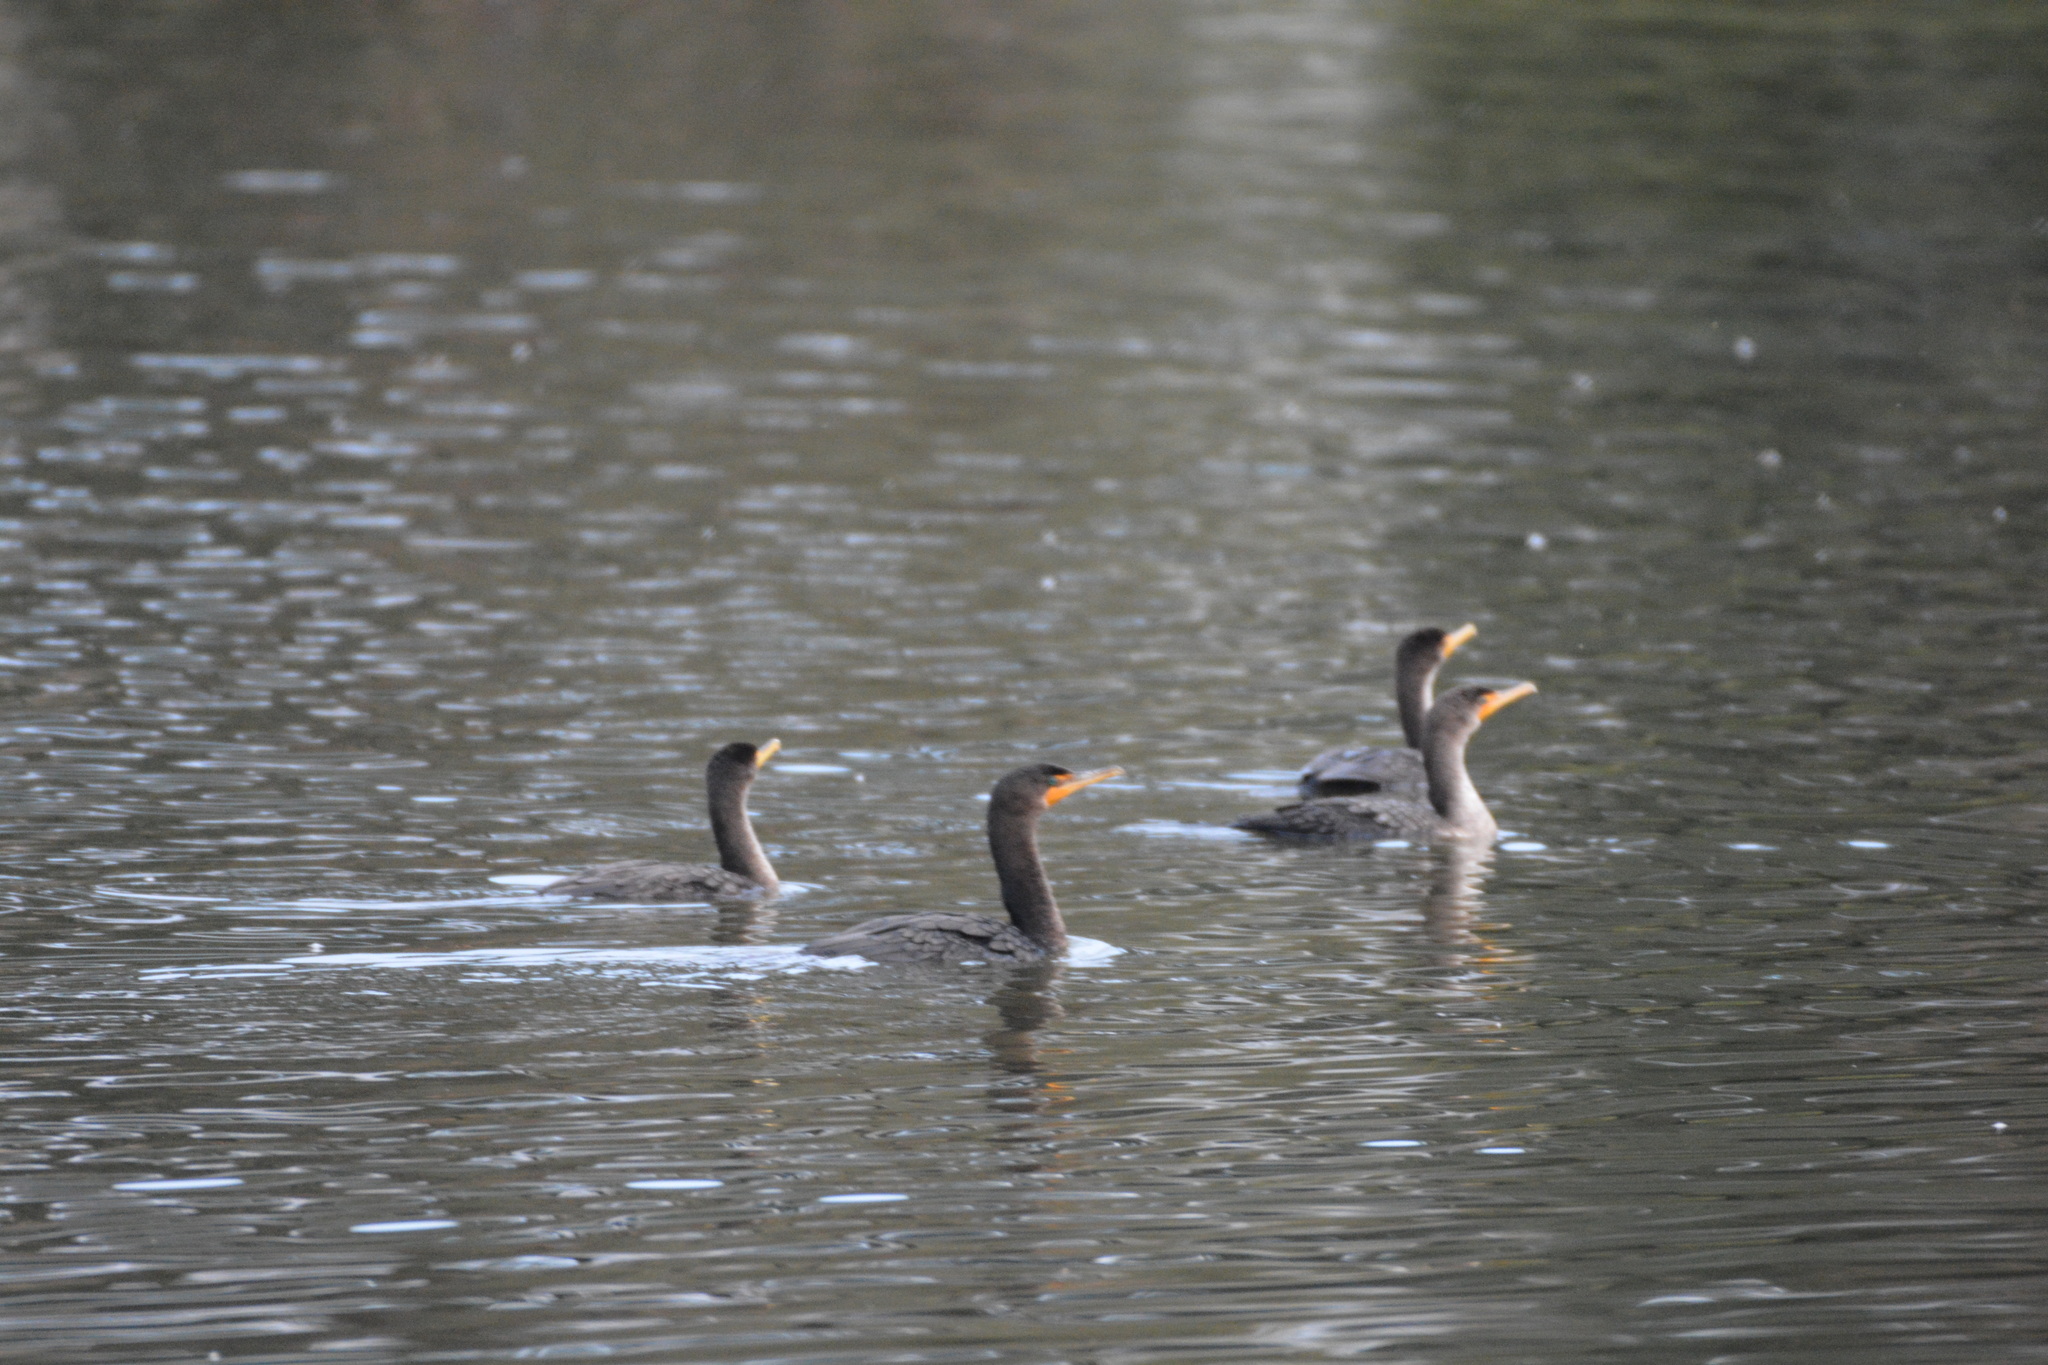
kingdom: Animalia
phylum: Chordata
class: Aves
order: Suliformes
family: Phalacrocoracidae
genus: Phalacrocorax
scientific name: Phalacrocorax auritus
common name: Double-crested cormorant
